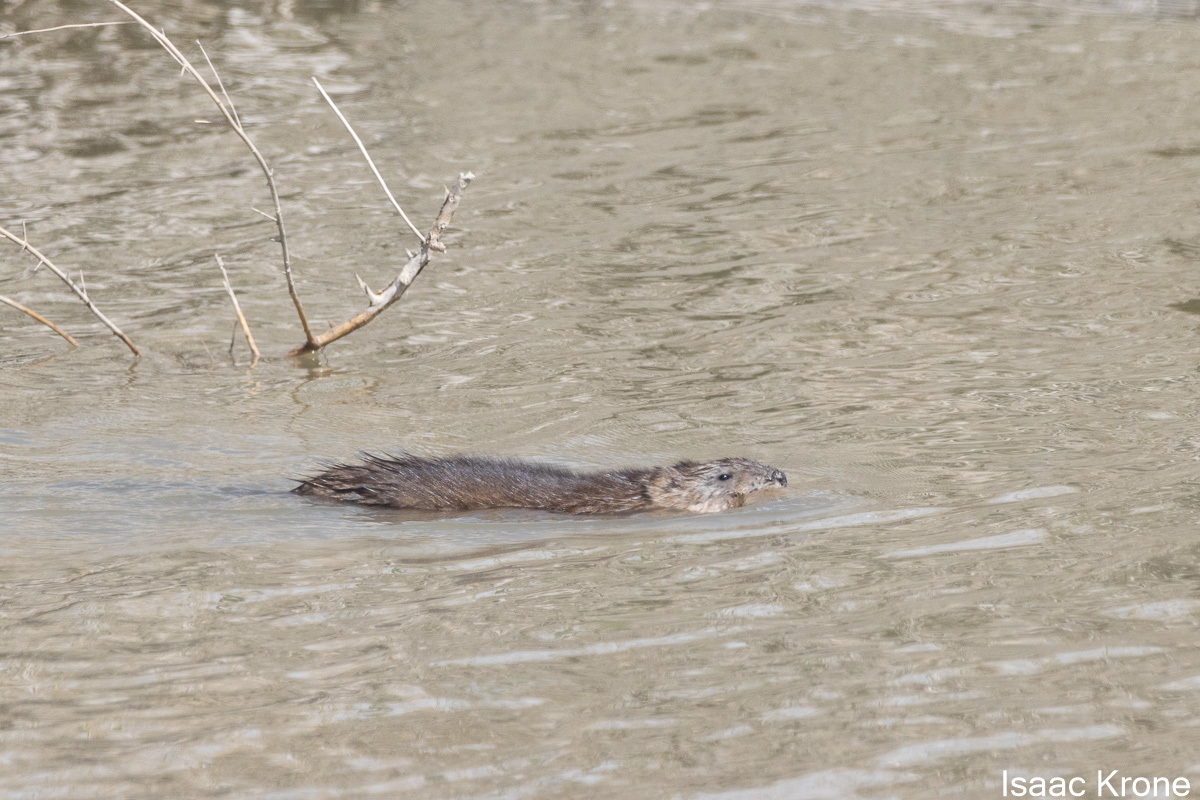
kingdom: Animalia
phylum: Chordata
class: Mammalia
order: Rodentia
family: Cricetidae
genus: Ondatra
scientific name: Ondatra zibethicus
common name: Muskrat
